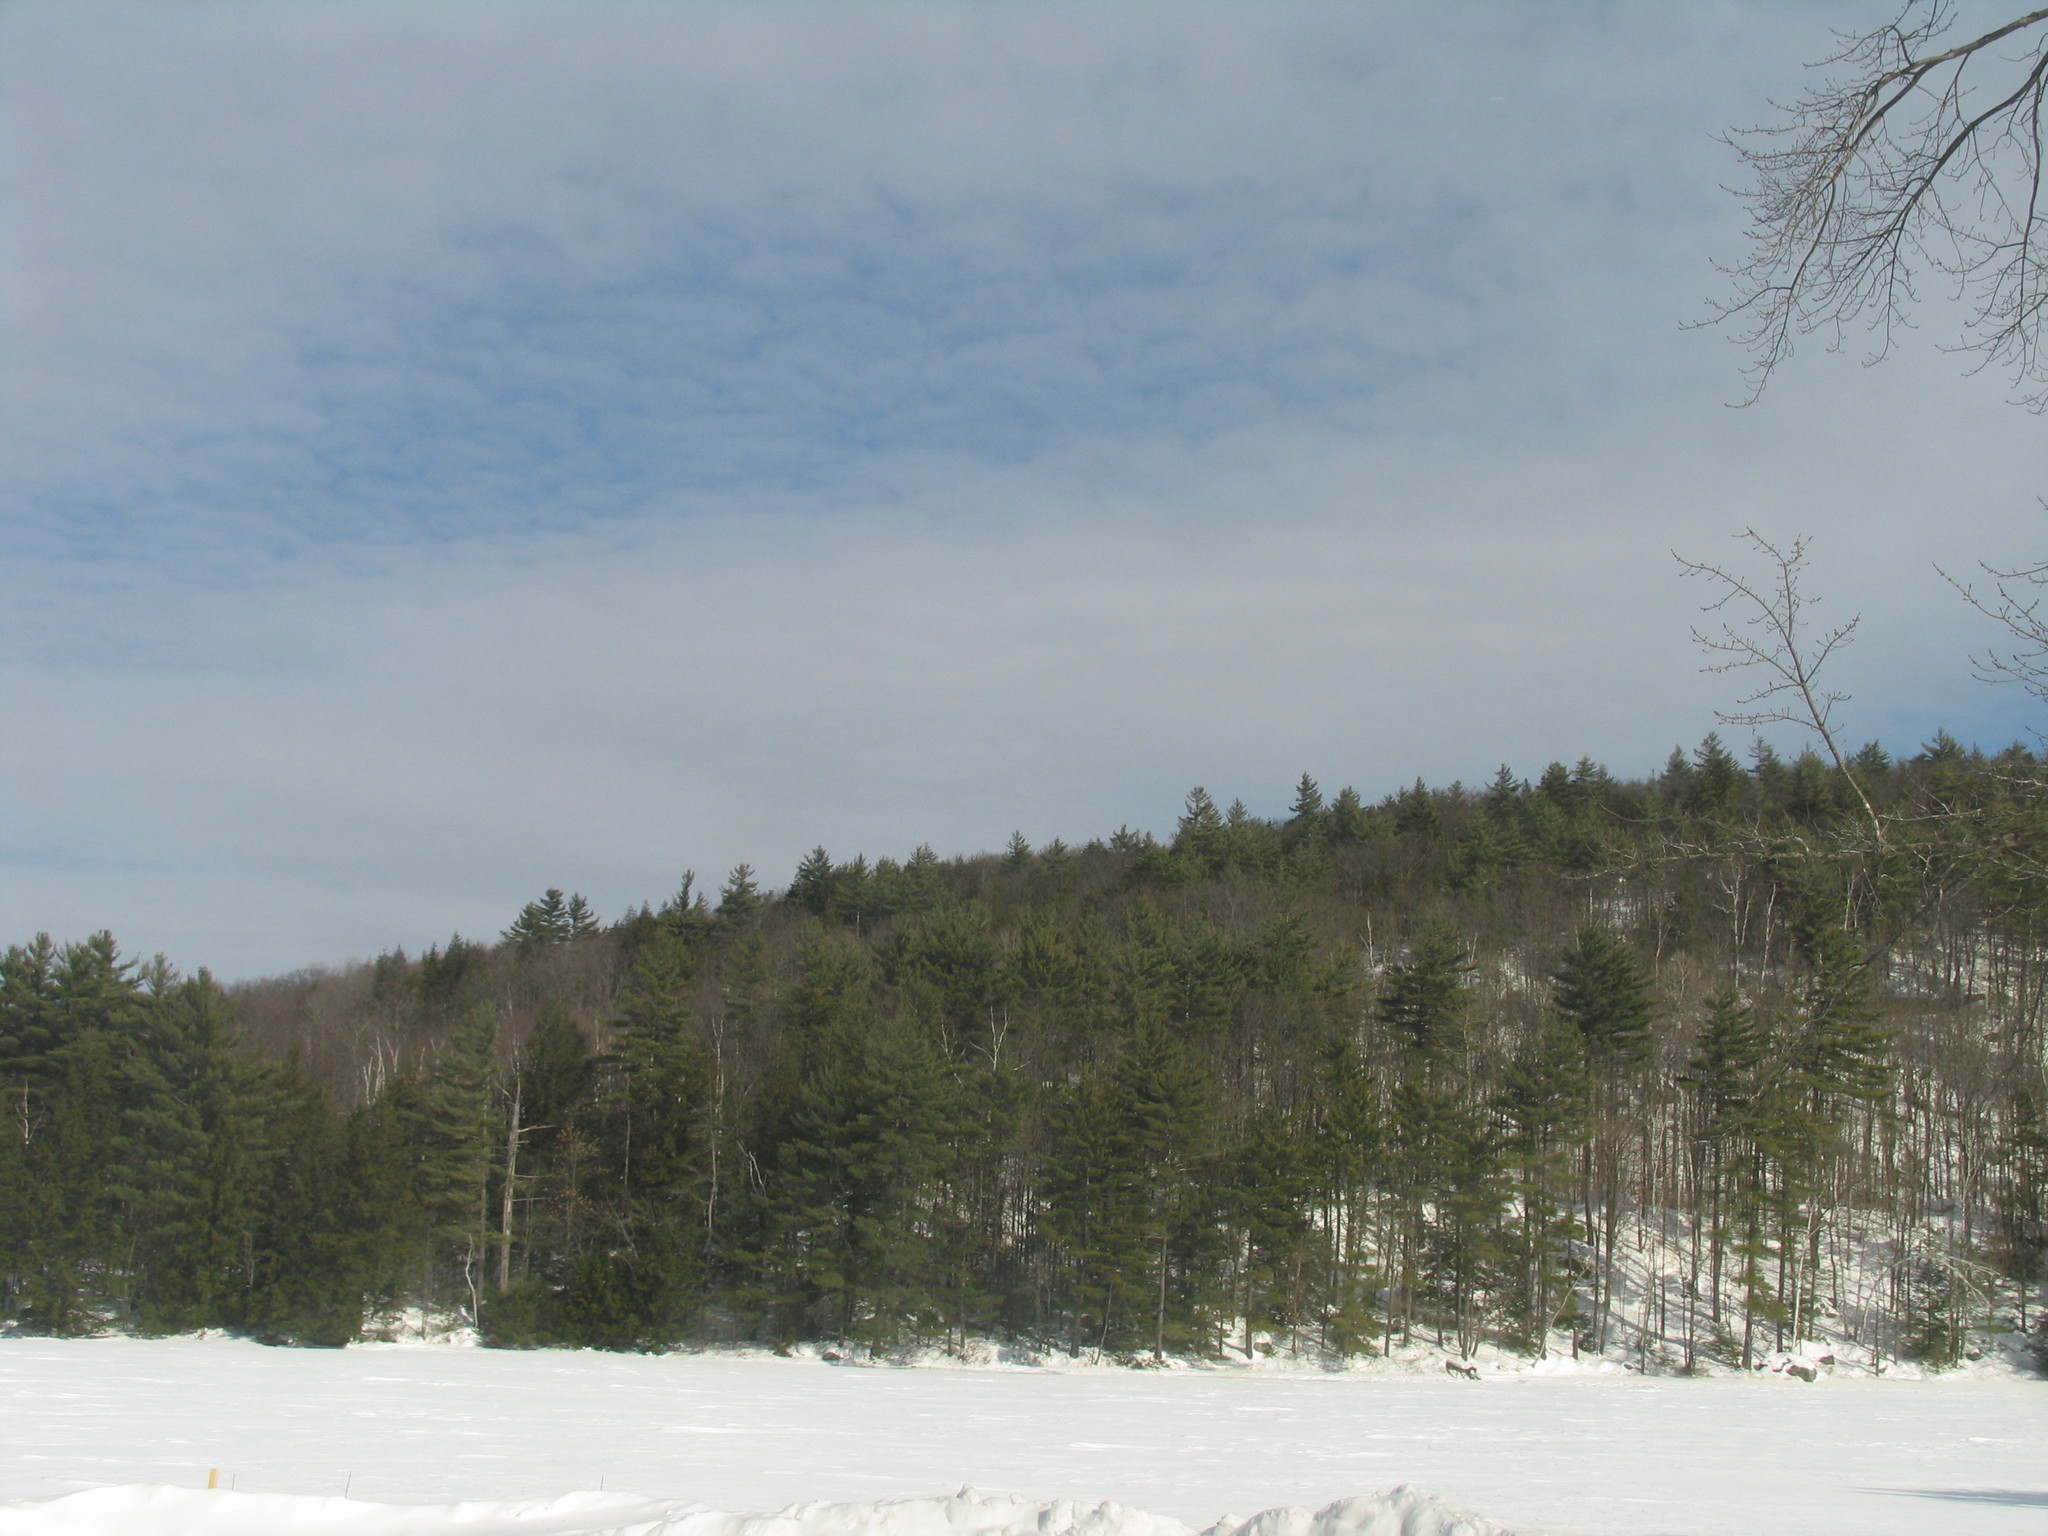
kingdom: Plantae
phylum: Tracheophyta
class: Pinopsida
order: Pinales
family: Pinaceae
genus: Pinus
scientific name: Pinus strobus
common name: Weymouth pine
